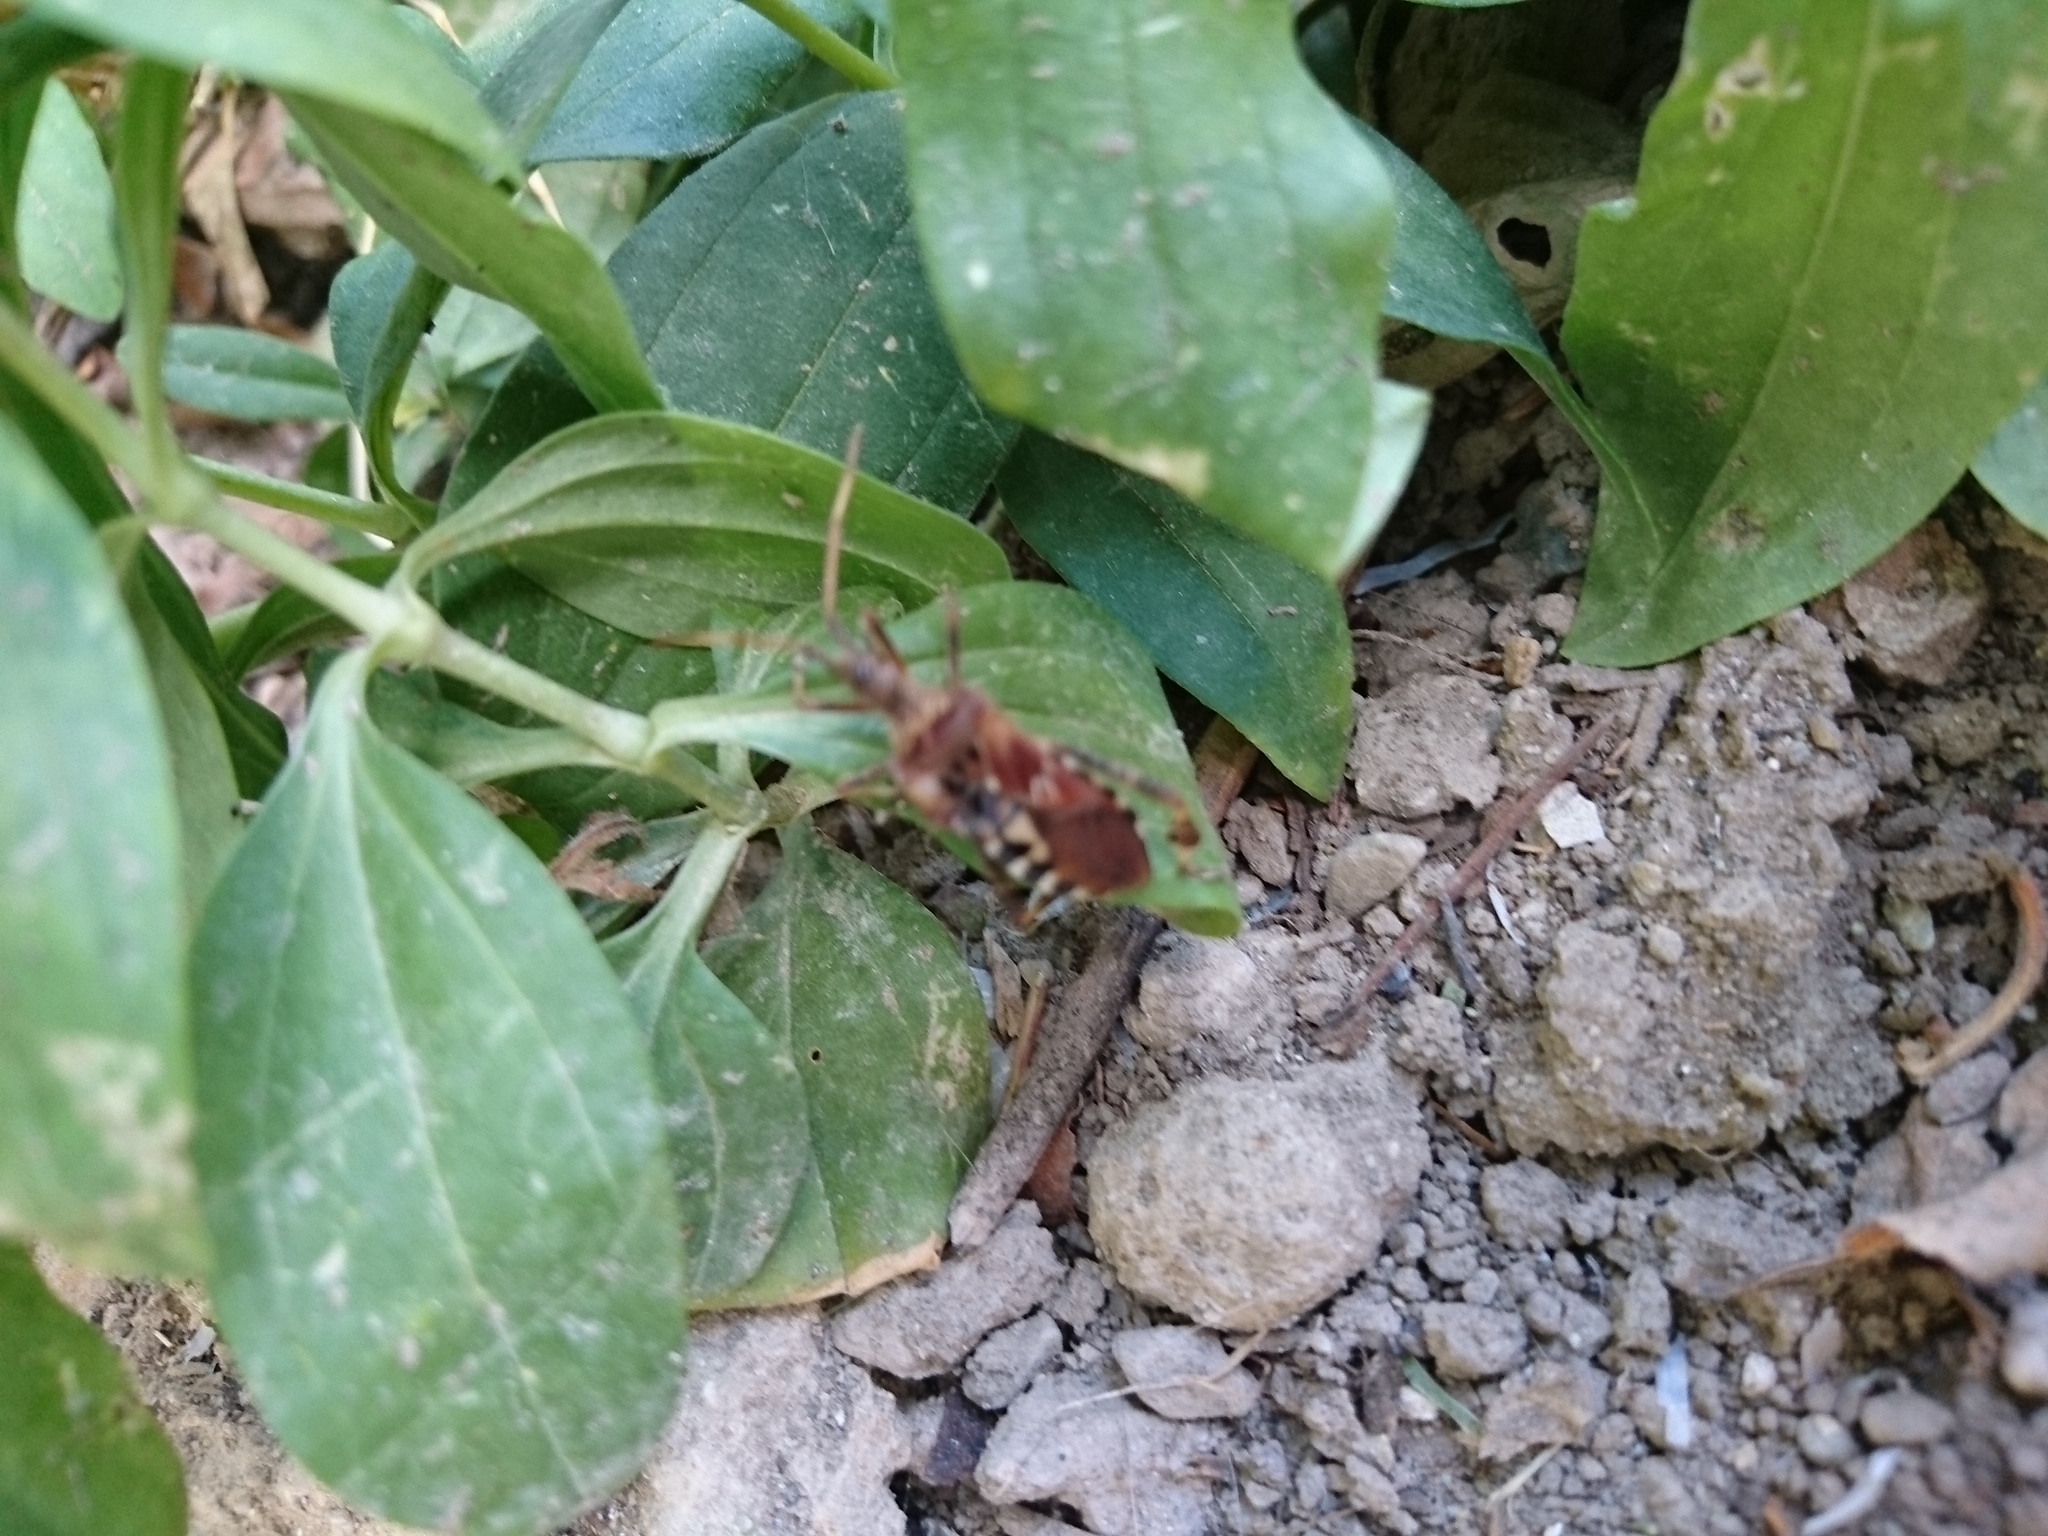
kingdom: Animalia
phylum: Arthropoda
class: Insecta
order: Hemiptera
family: Coreidae
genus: Leptoglossus
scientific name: Leptoglossus occidentalis
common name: Western conifer-seed bug
